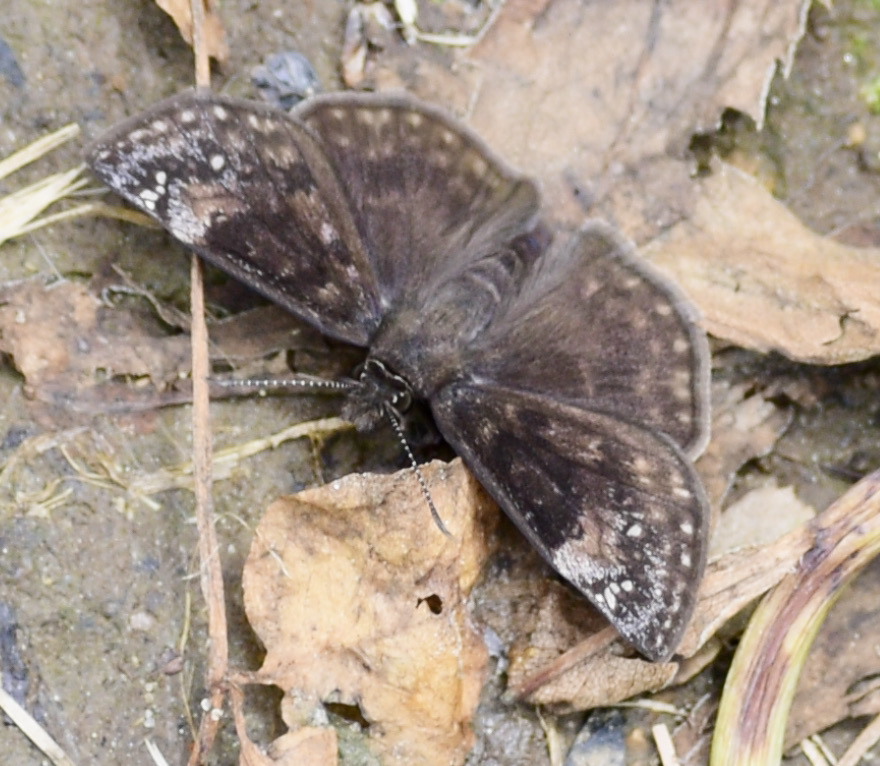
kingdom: Animalia
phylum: Arthropoda
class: Insecta
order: Lepidoptera
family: Hesperiidae
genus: Erynnis
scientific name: Erynnis baptisiae
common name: Wild indigo duskywing
